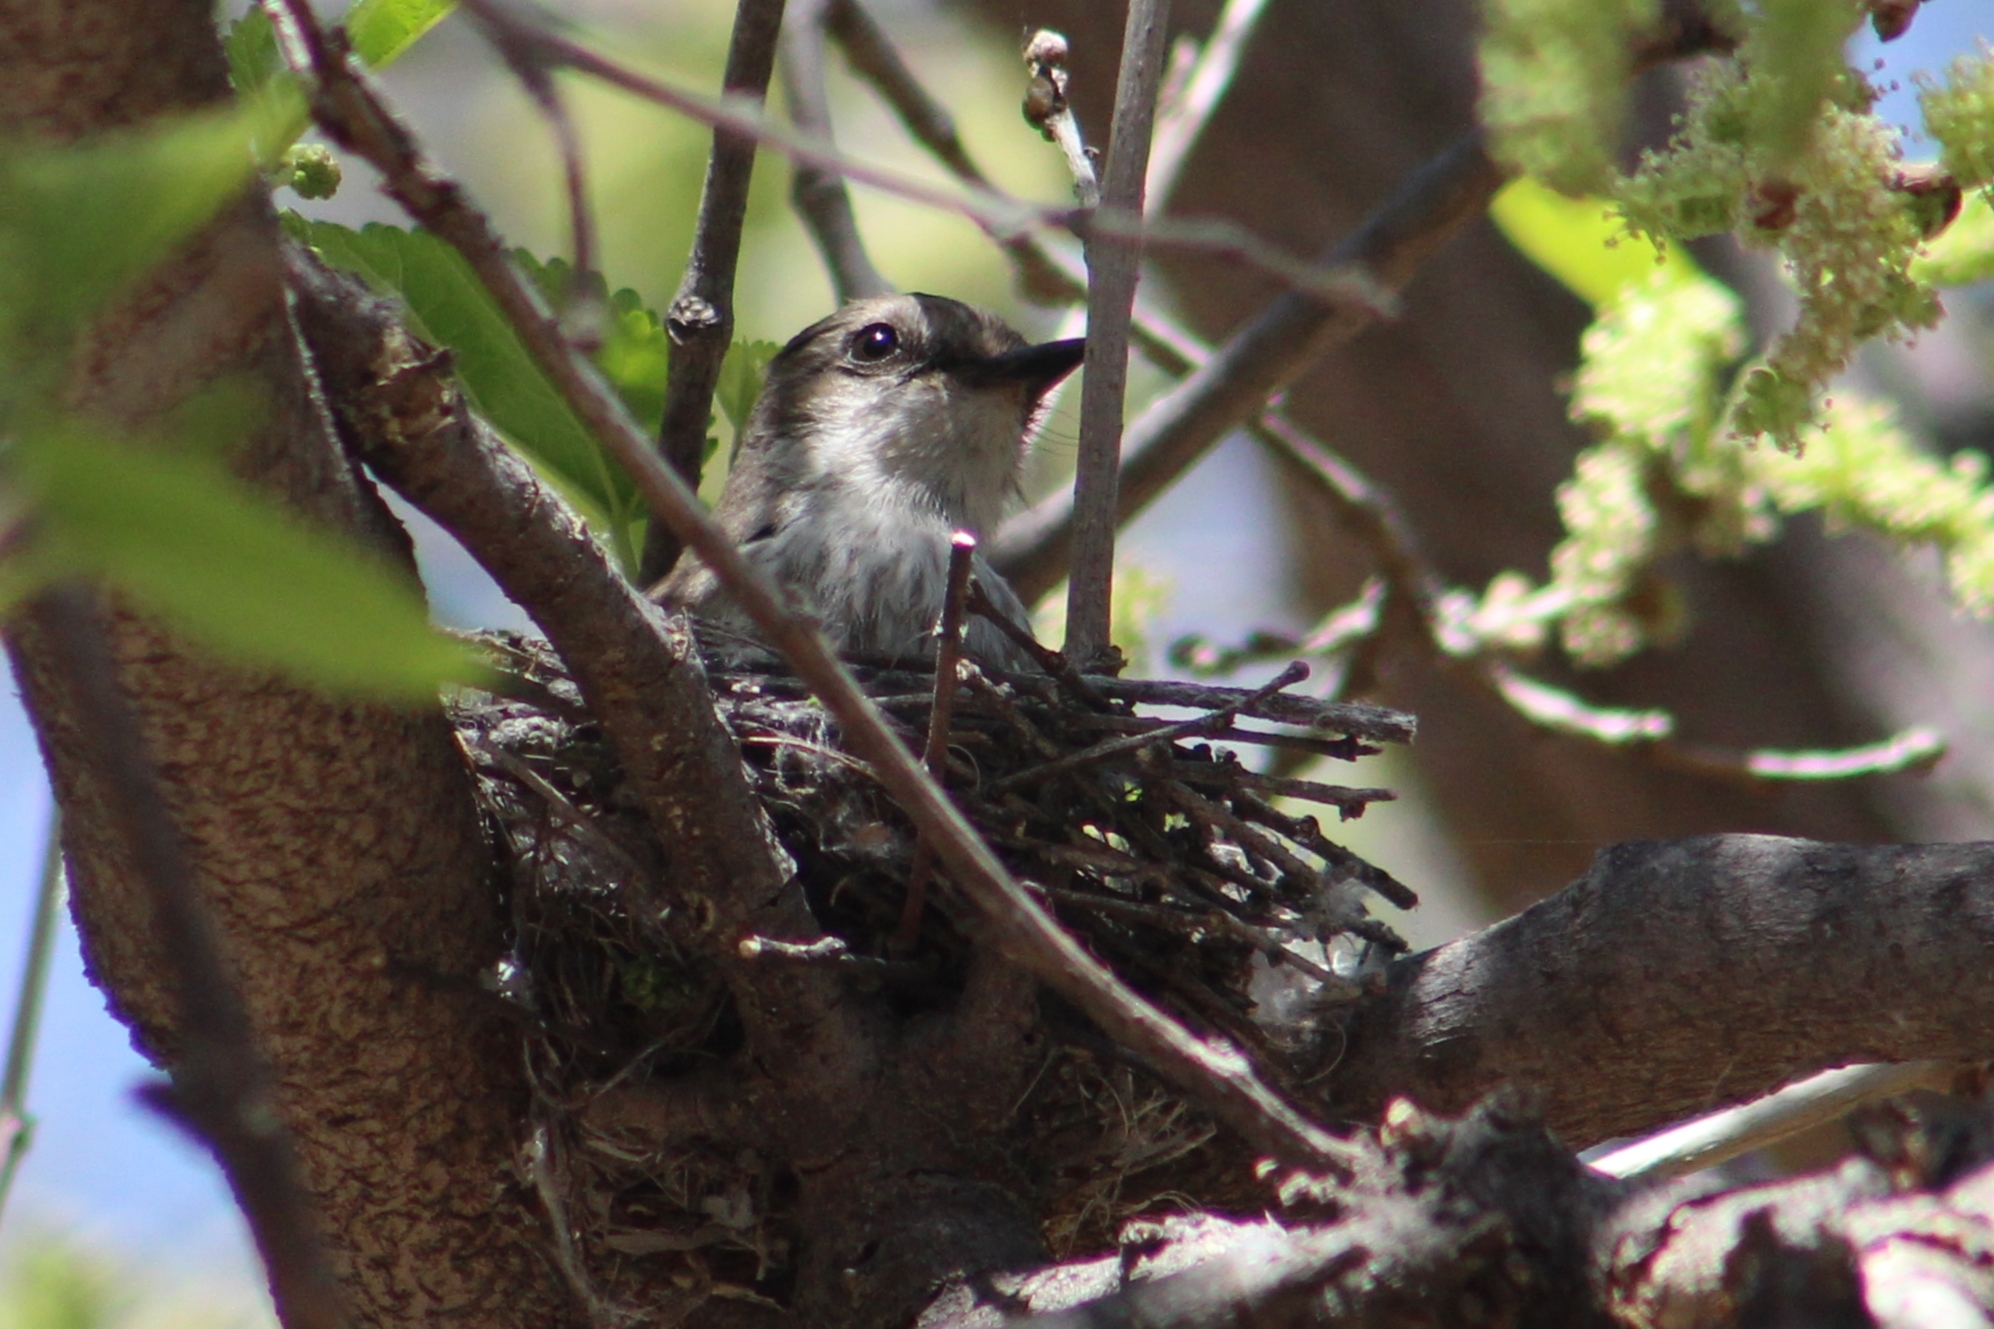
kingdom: Animalia
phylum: Chordata
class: Aves
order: Passeriformes
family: Tyrannidae
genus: Pyrocephalus
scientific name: Pyrocephalus rubinus
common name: Vermilion flycatcher
